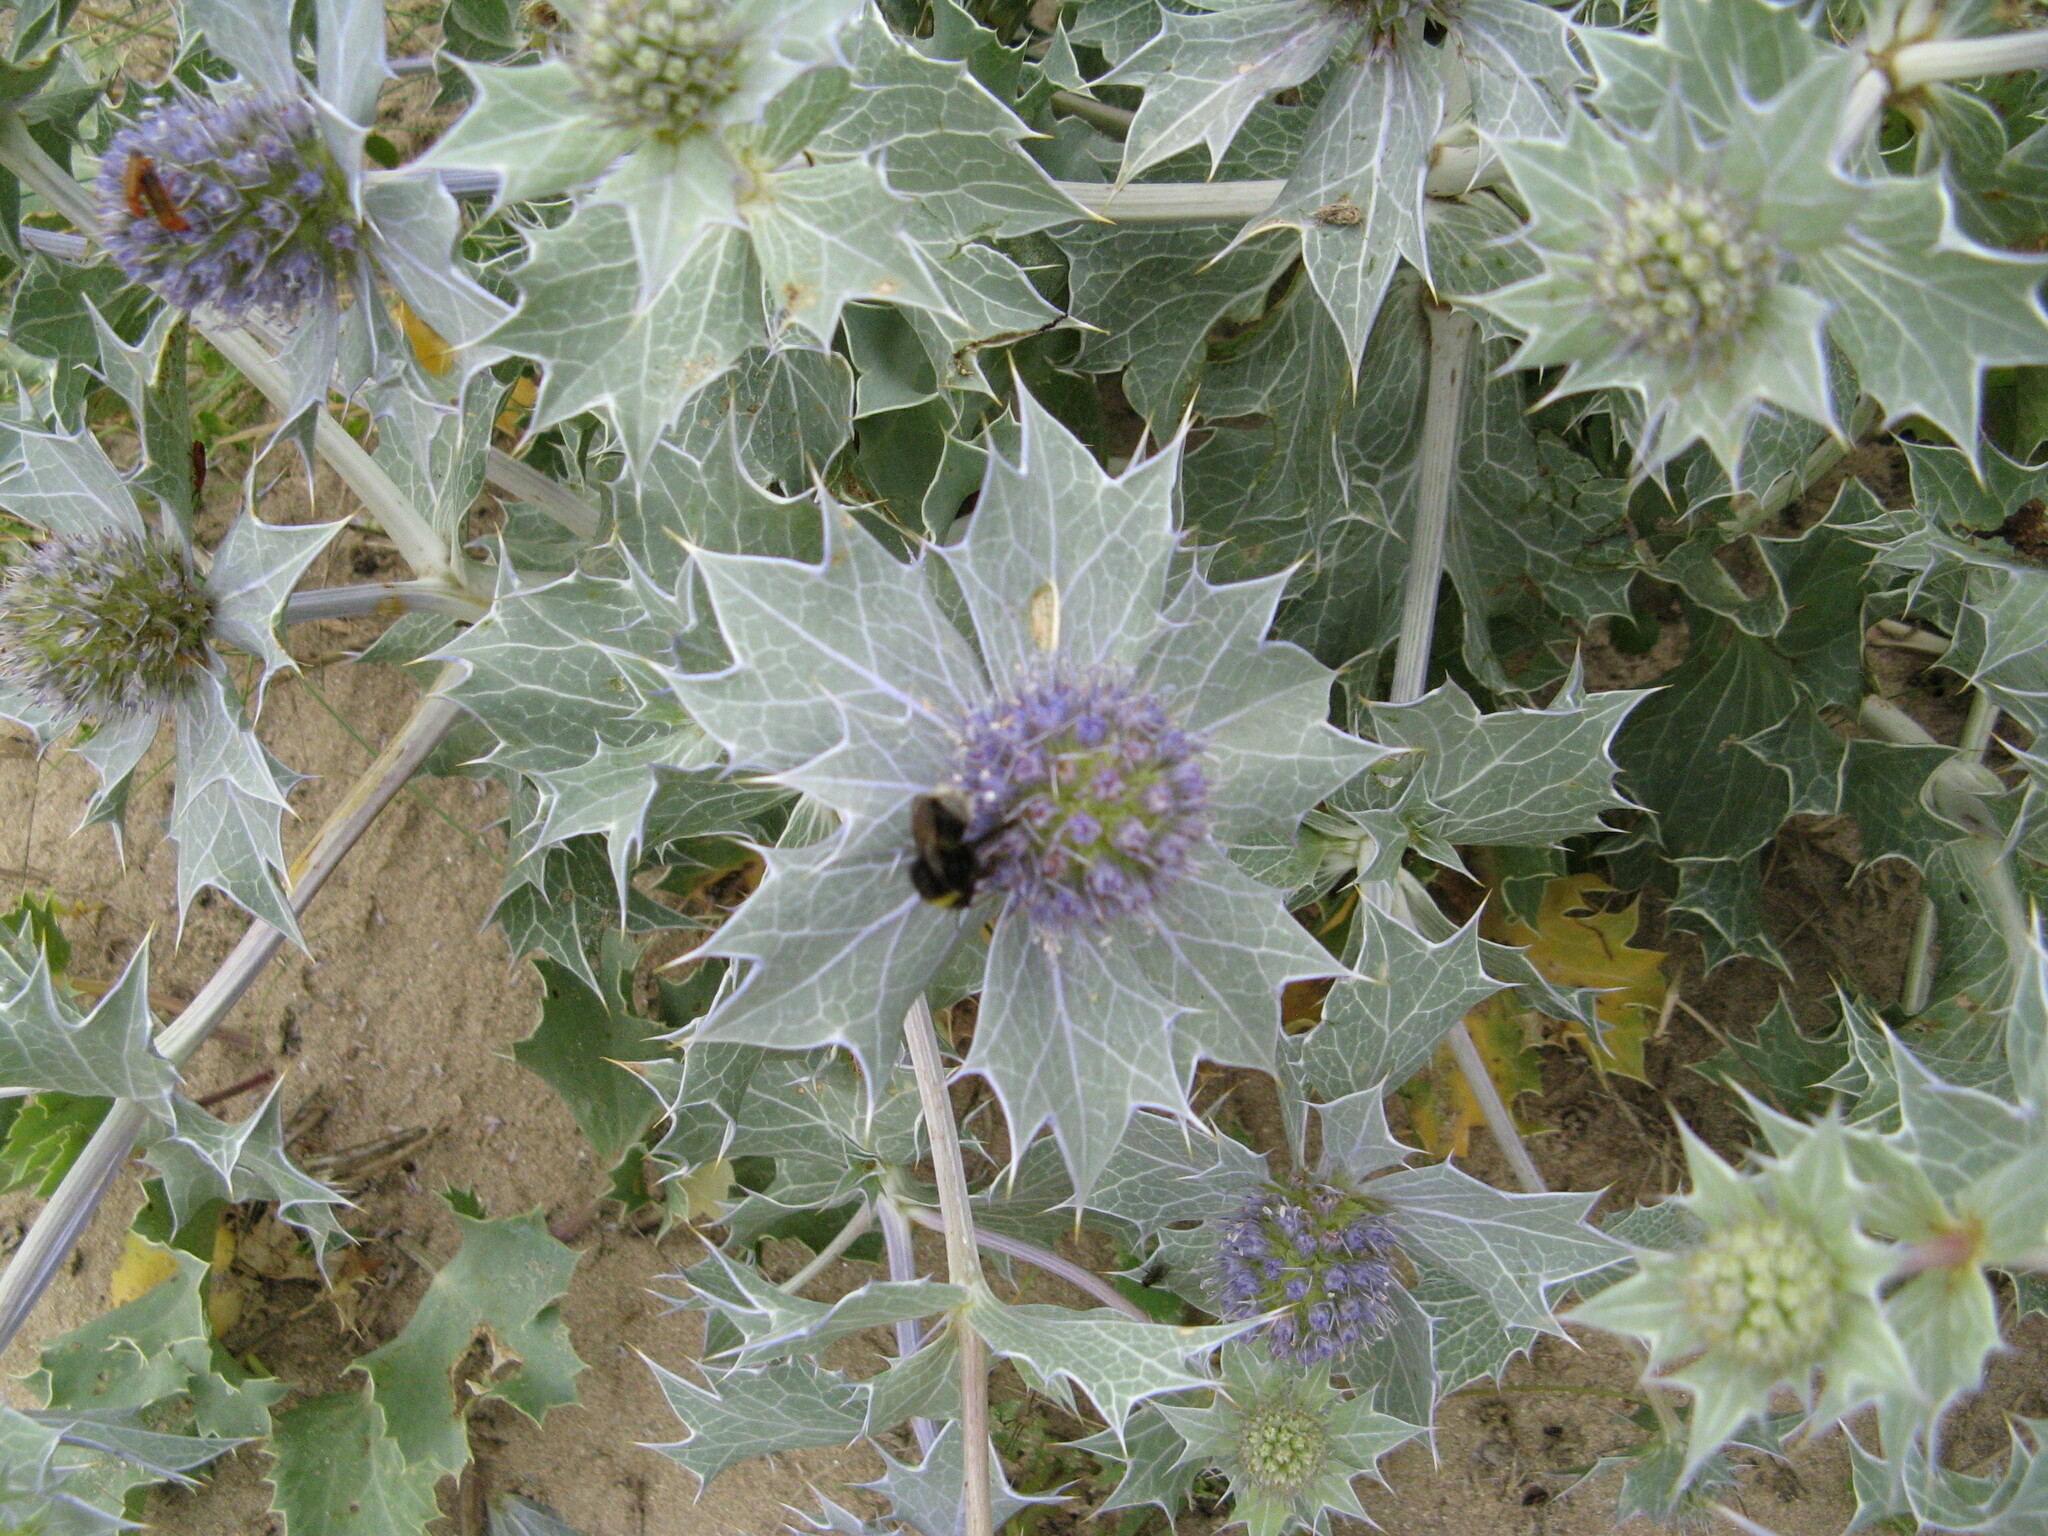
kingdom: Plantae
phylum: Tracheophyta
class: Magnoliopsida
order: Apiales
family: Apiaceae
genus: Eryngium
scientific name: Eryngium maritimum
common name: Sea-holly
